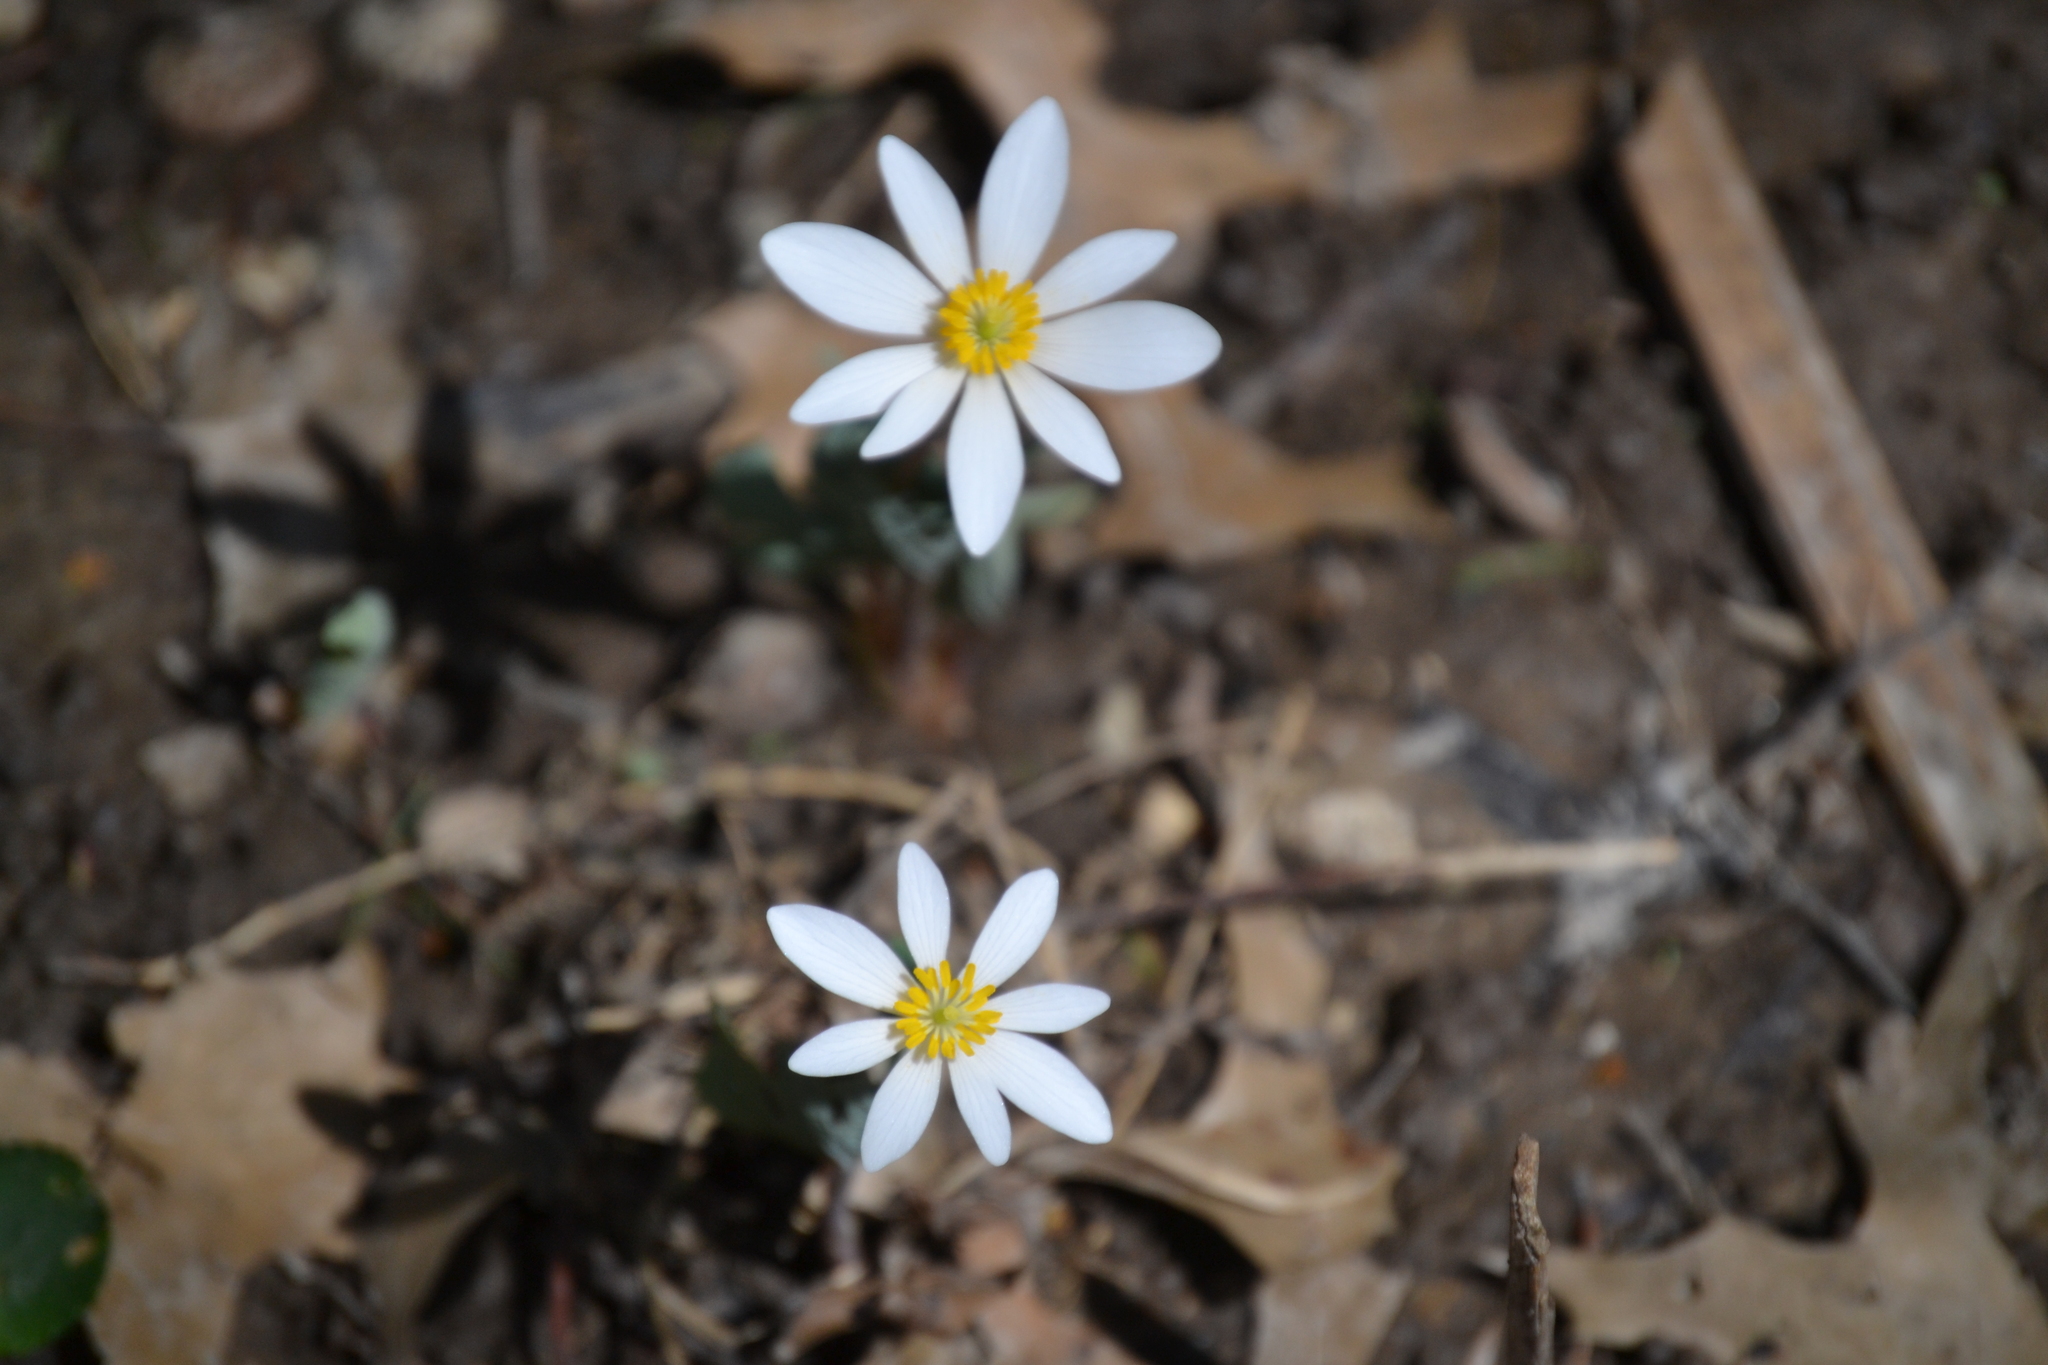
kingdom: Plantae
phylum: Tracheophyta
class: Magnoliopsida
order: Ranunculales
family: Papaveraceae
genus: Sanguinaria
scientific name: Sanguinaria canadensis
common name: Bloodroot
